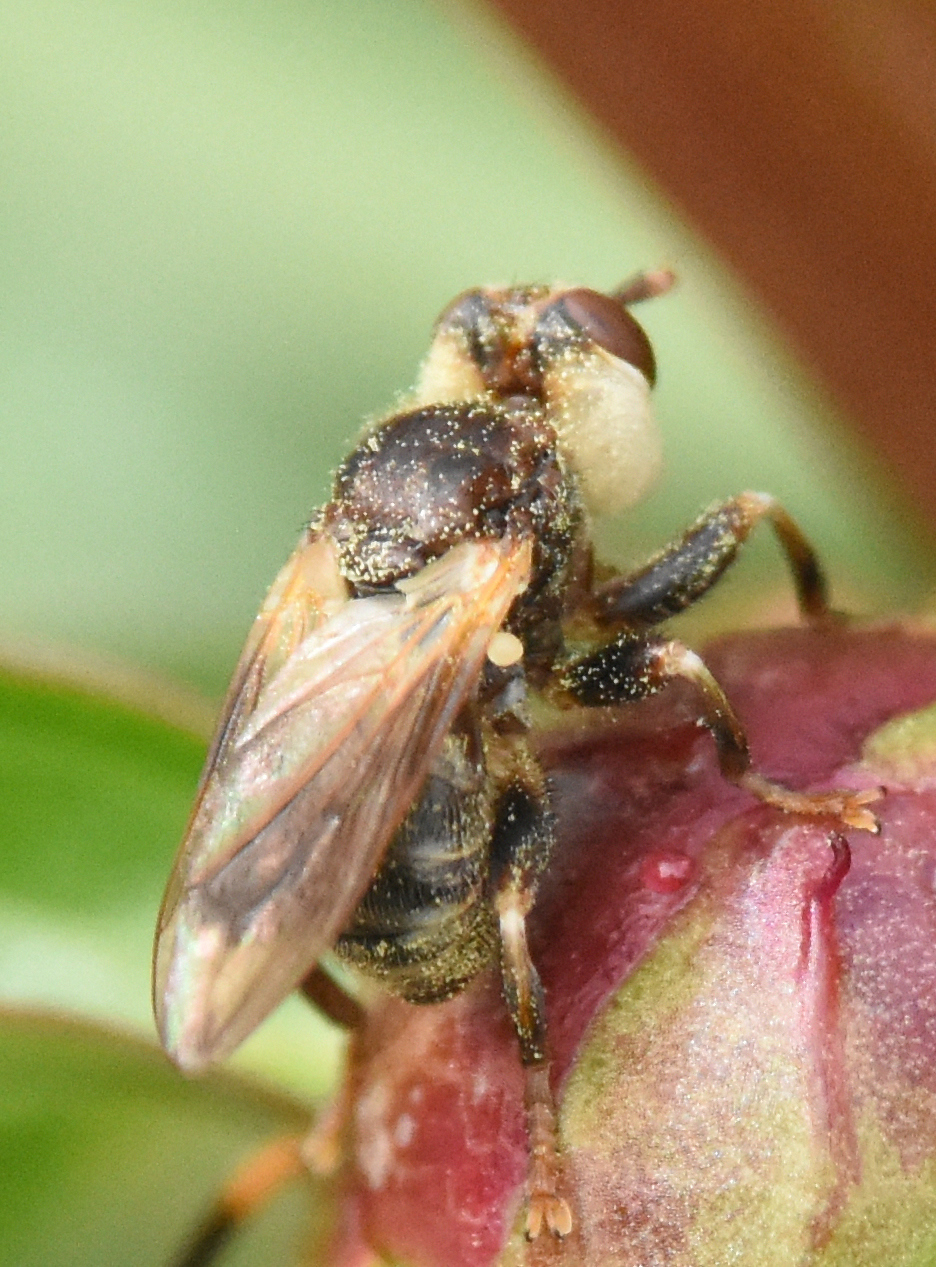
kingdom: Animalia
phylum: Arthropoda
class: Insecta
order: Diptera
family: Conopidae
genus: Myopa
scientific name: Myopa vesiculosa
